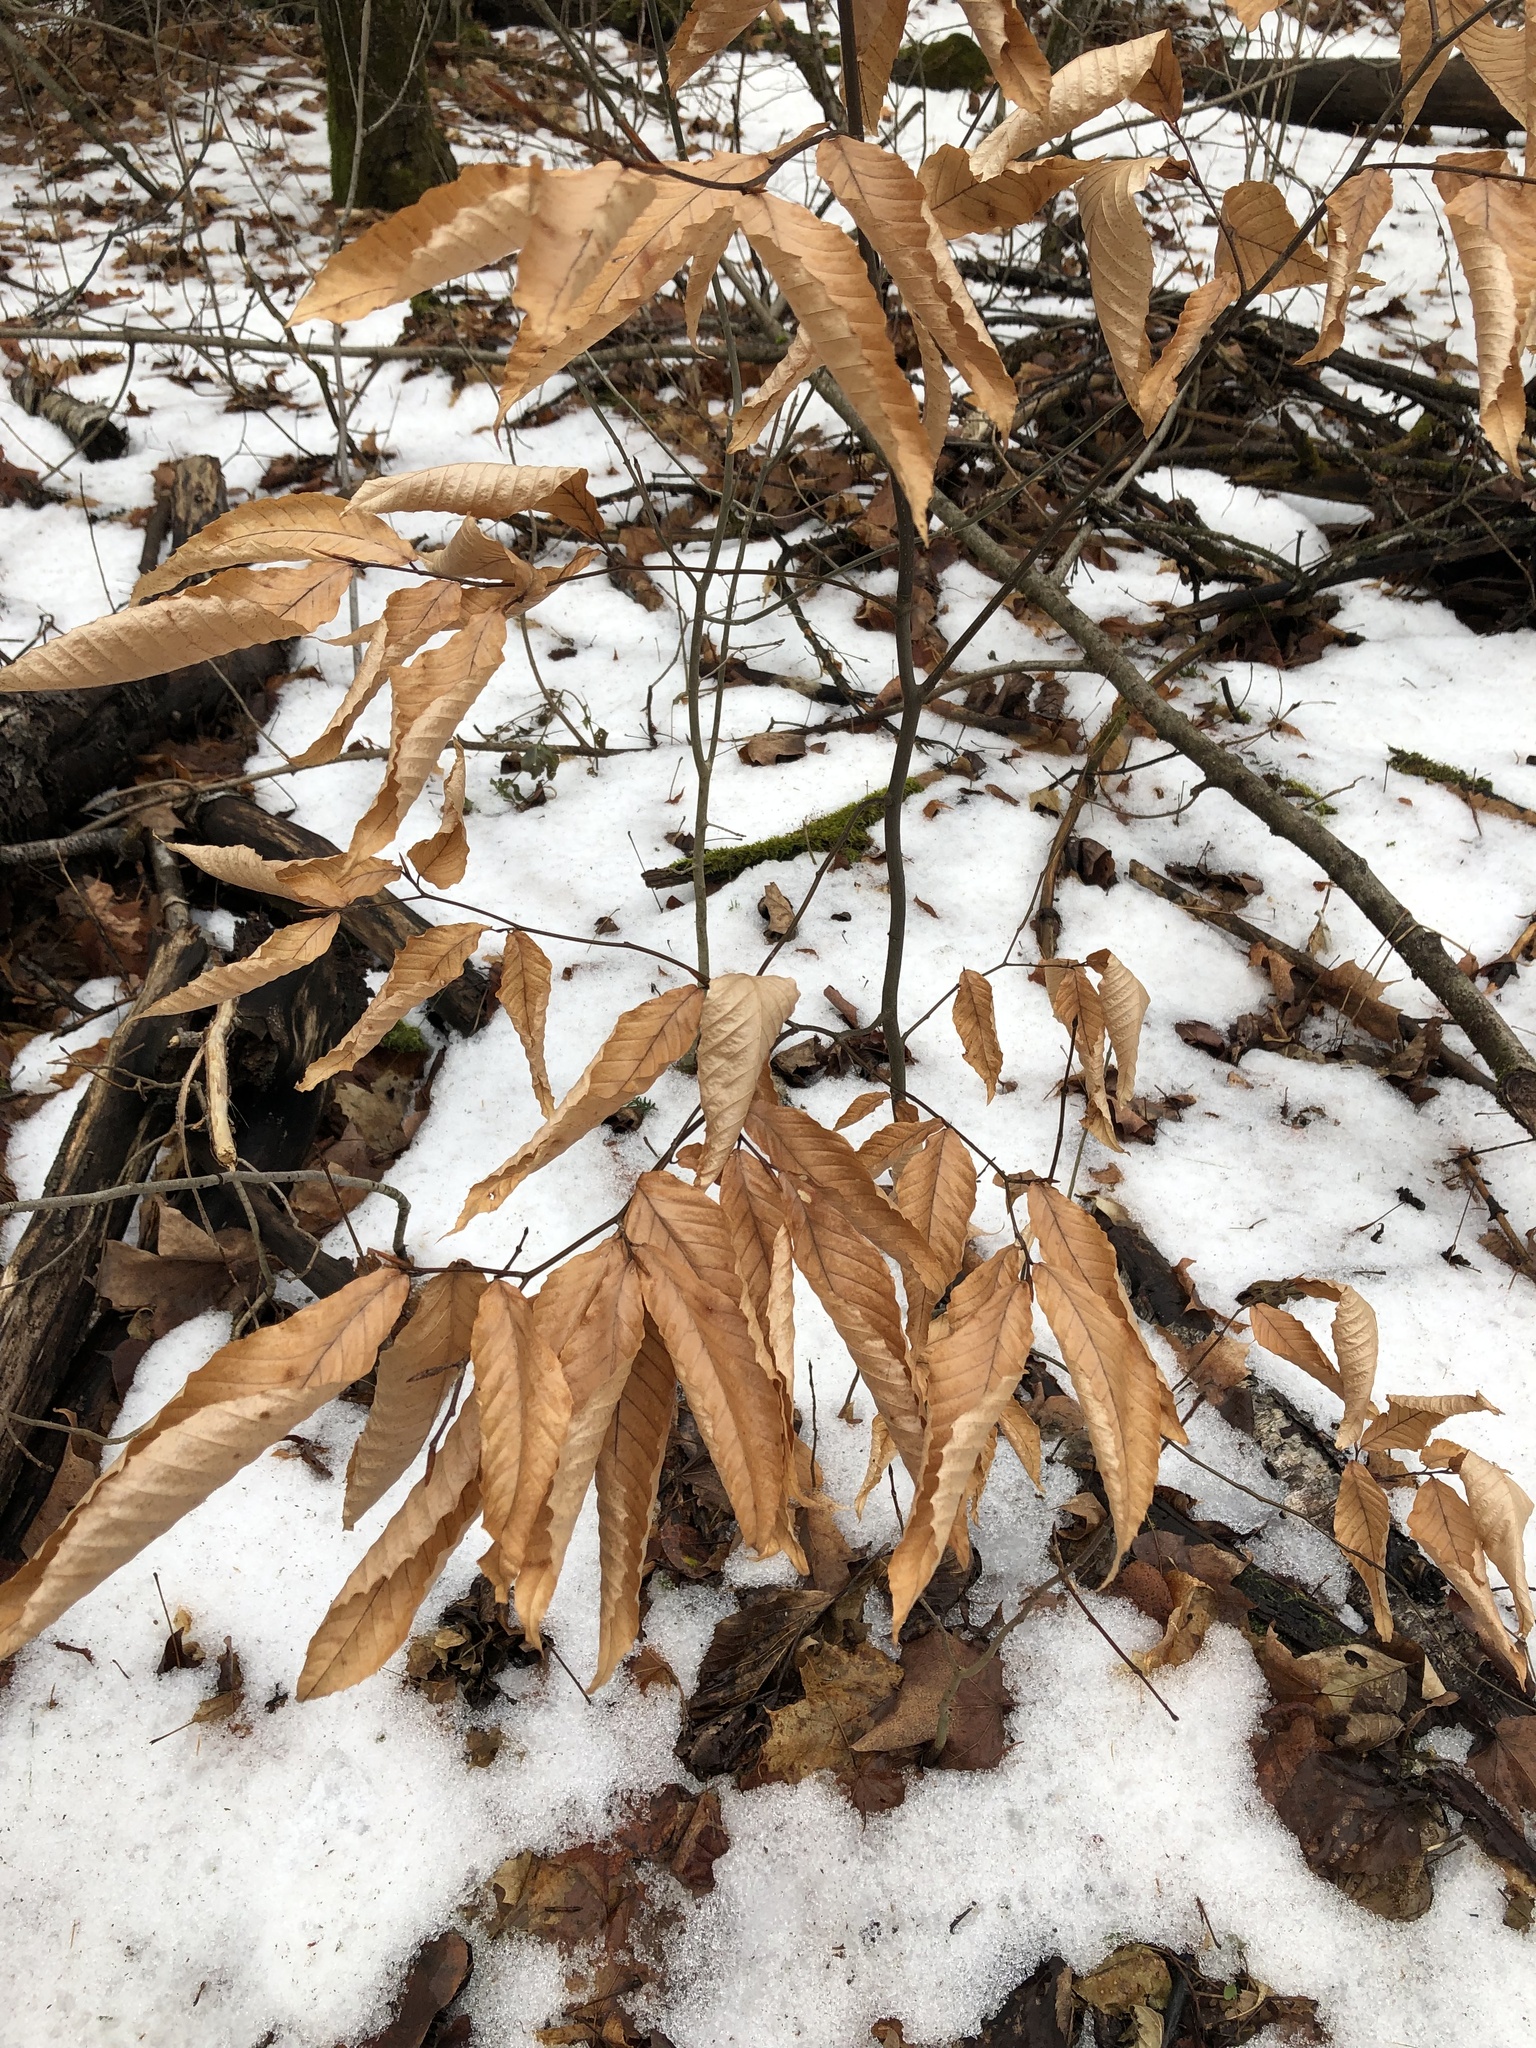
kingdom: Plantae
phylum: Tracheophyta
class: Magnoliopsida
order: Fagales
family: Fagaceae
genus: Fagus
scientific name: Fagus grandifolia
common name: American beech
